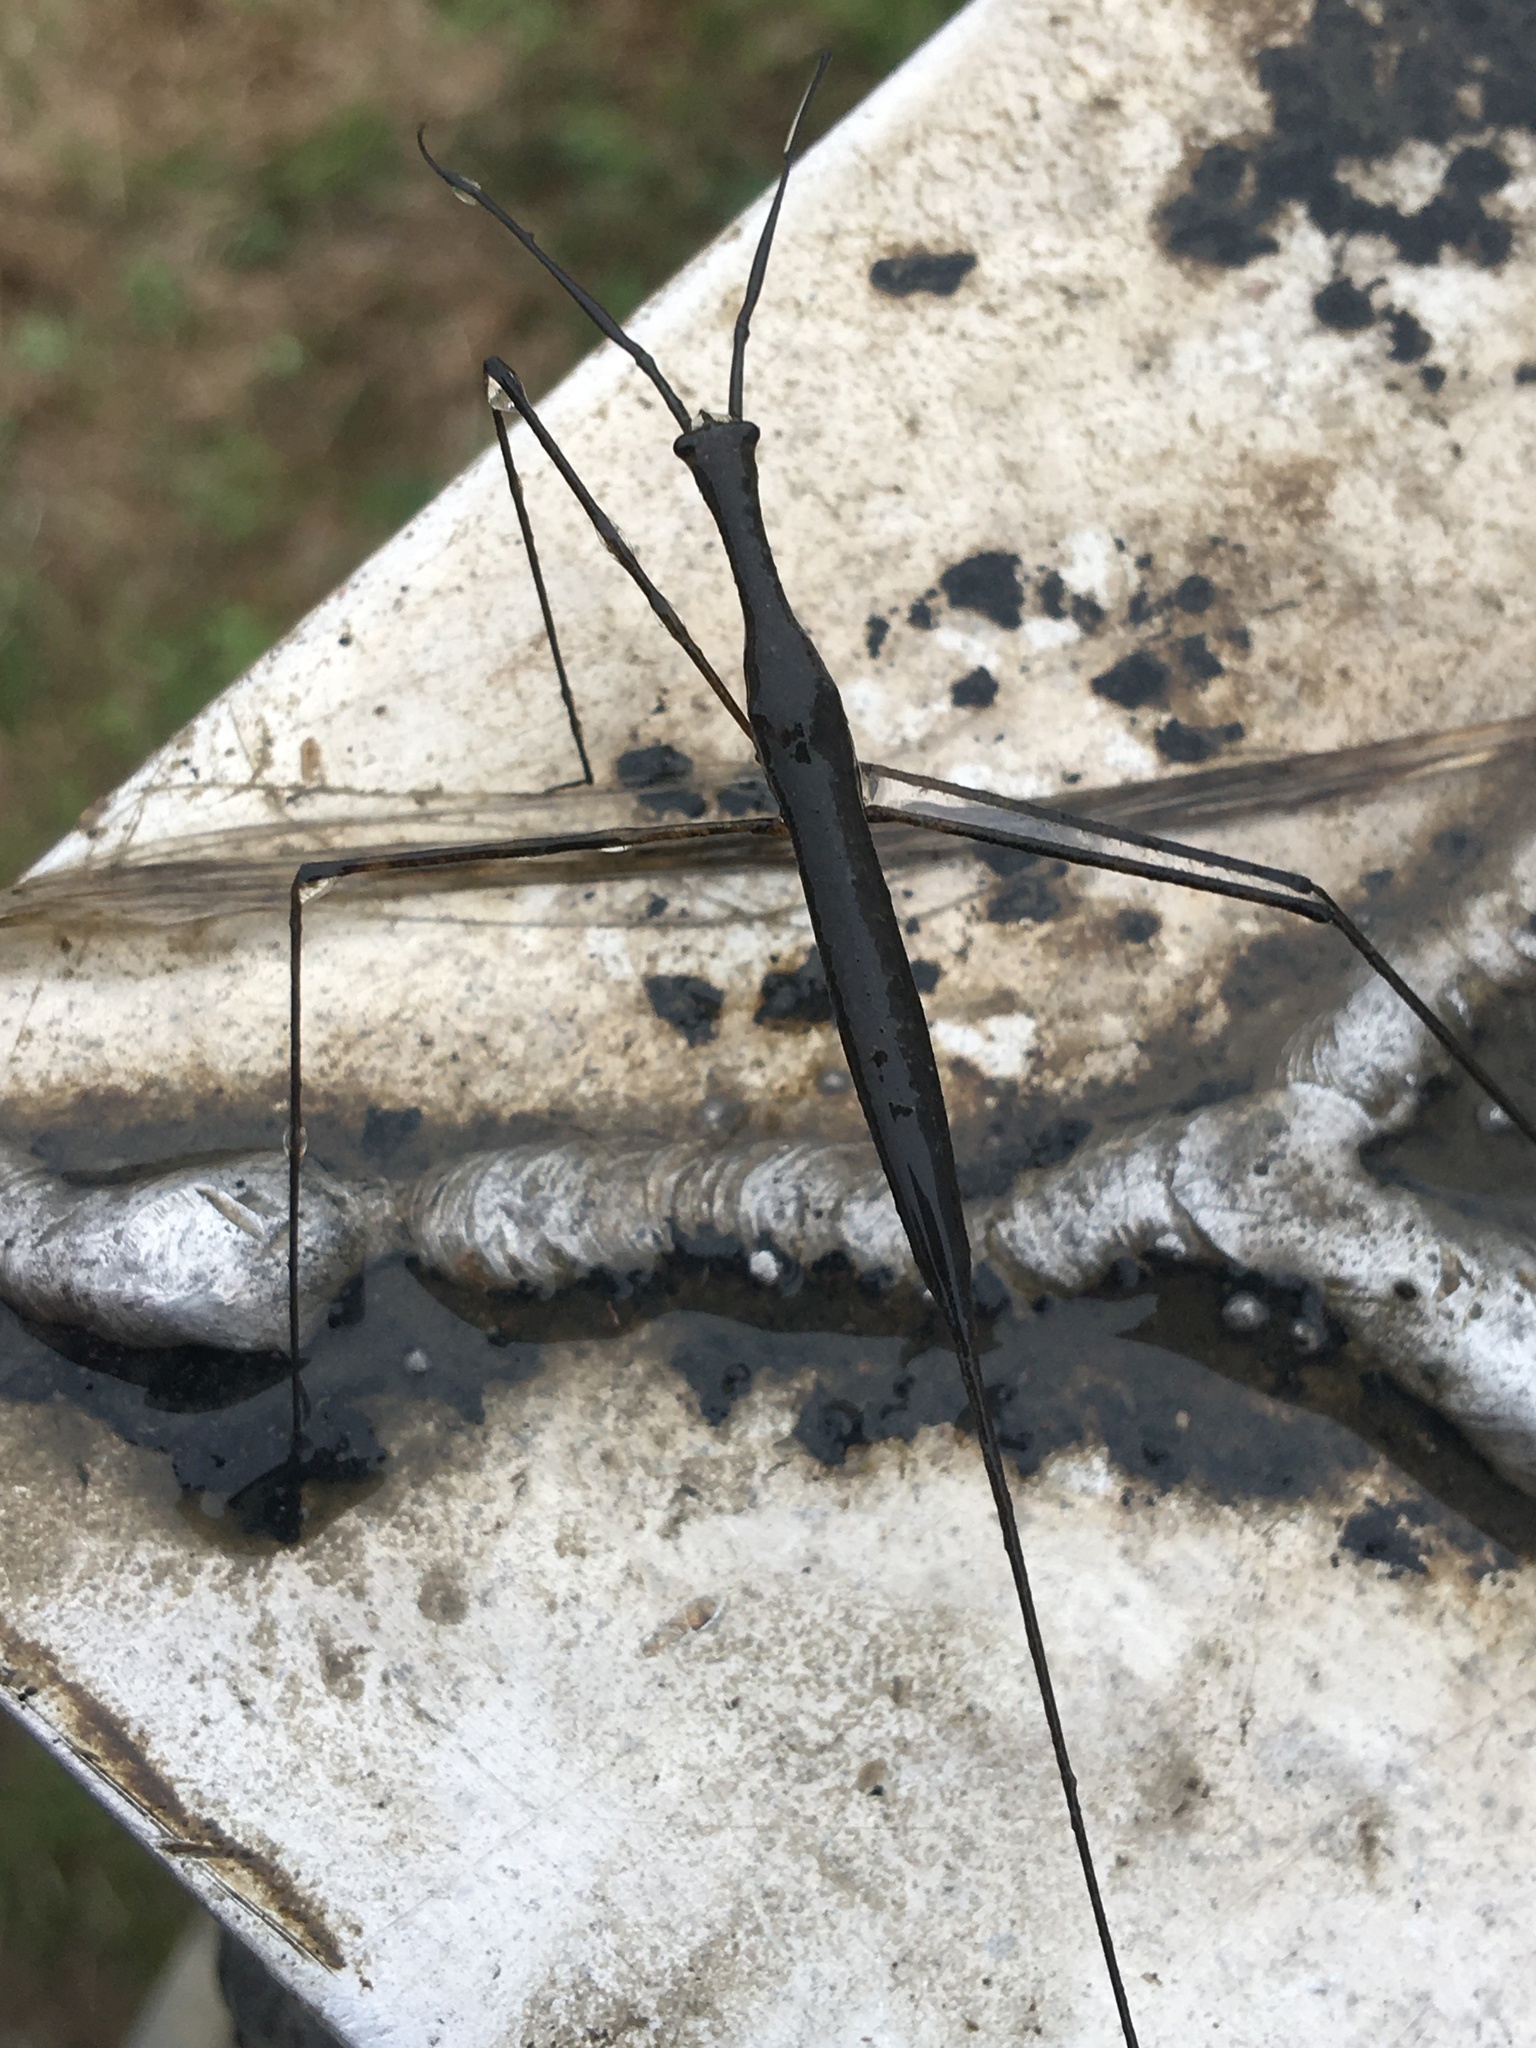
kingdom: Animalia
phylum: Arthropoda
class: Insecta
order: Hemiptera
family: Nepidae
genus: Ranatra
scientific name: Ranatra
